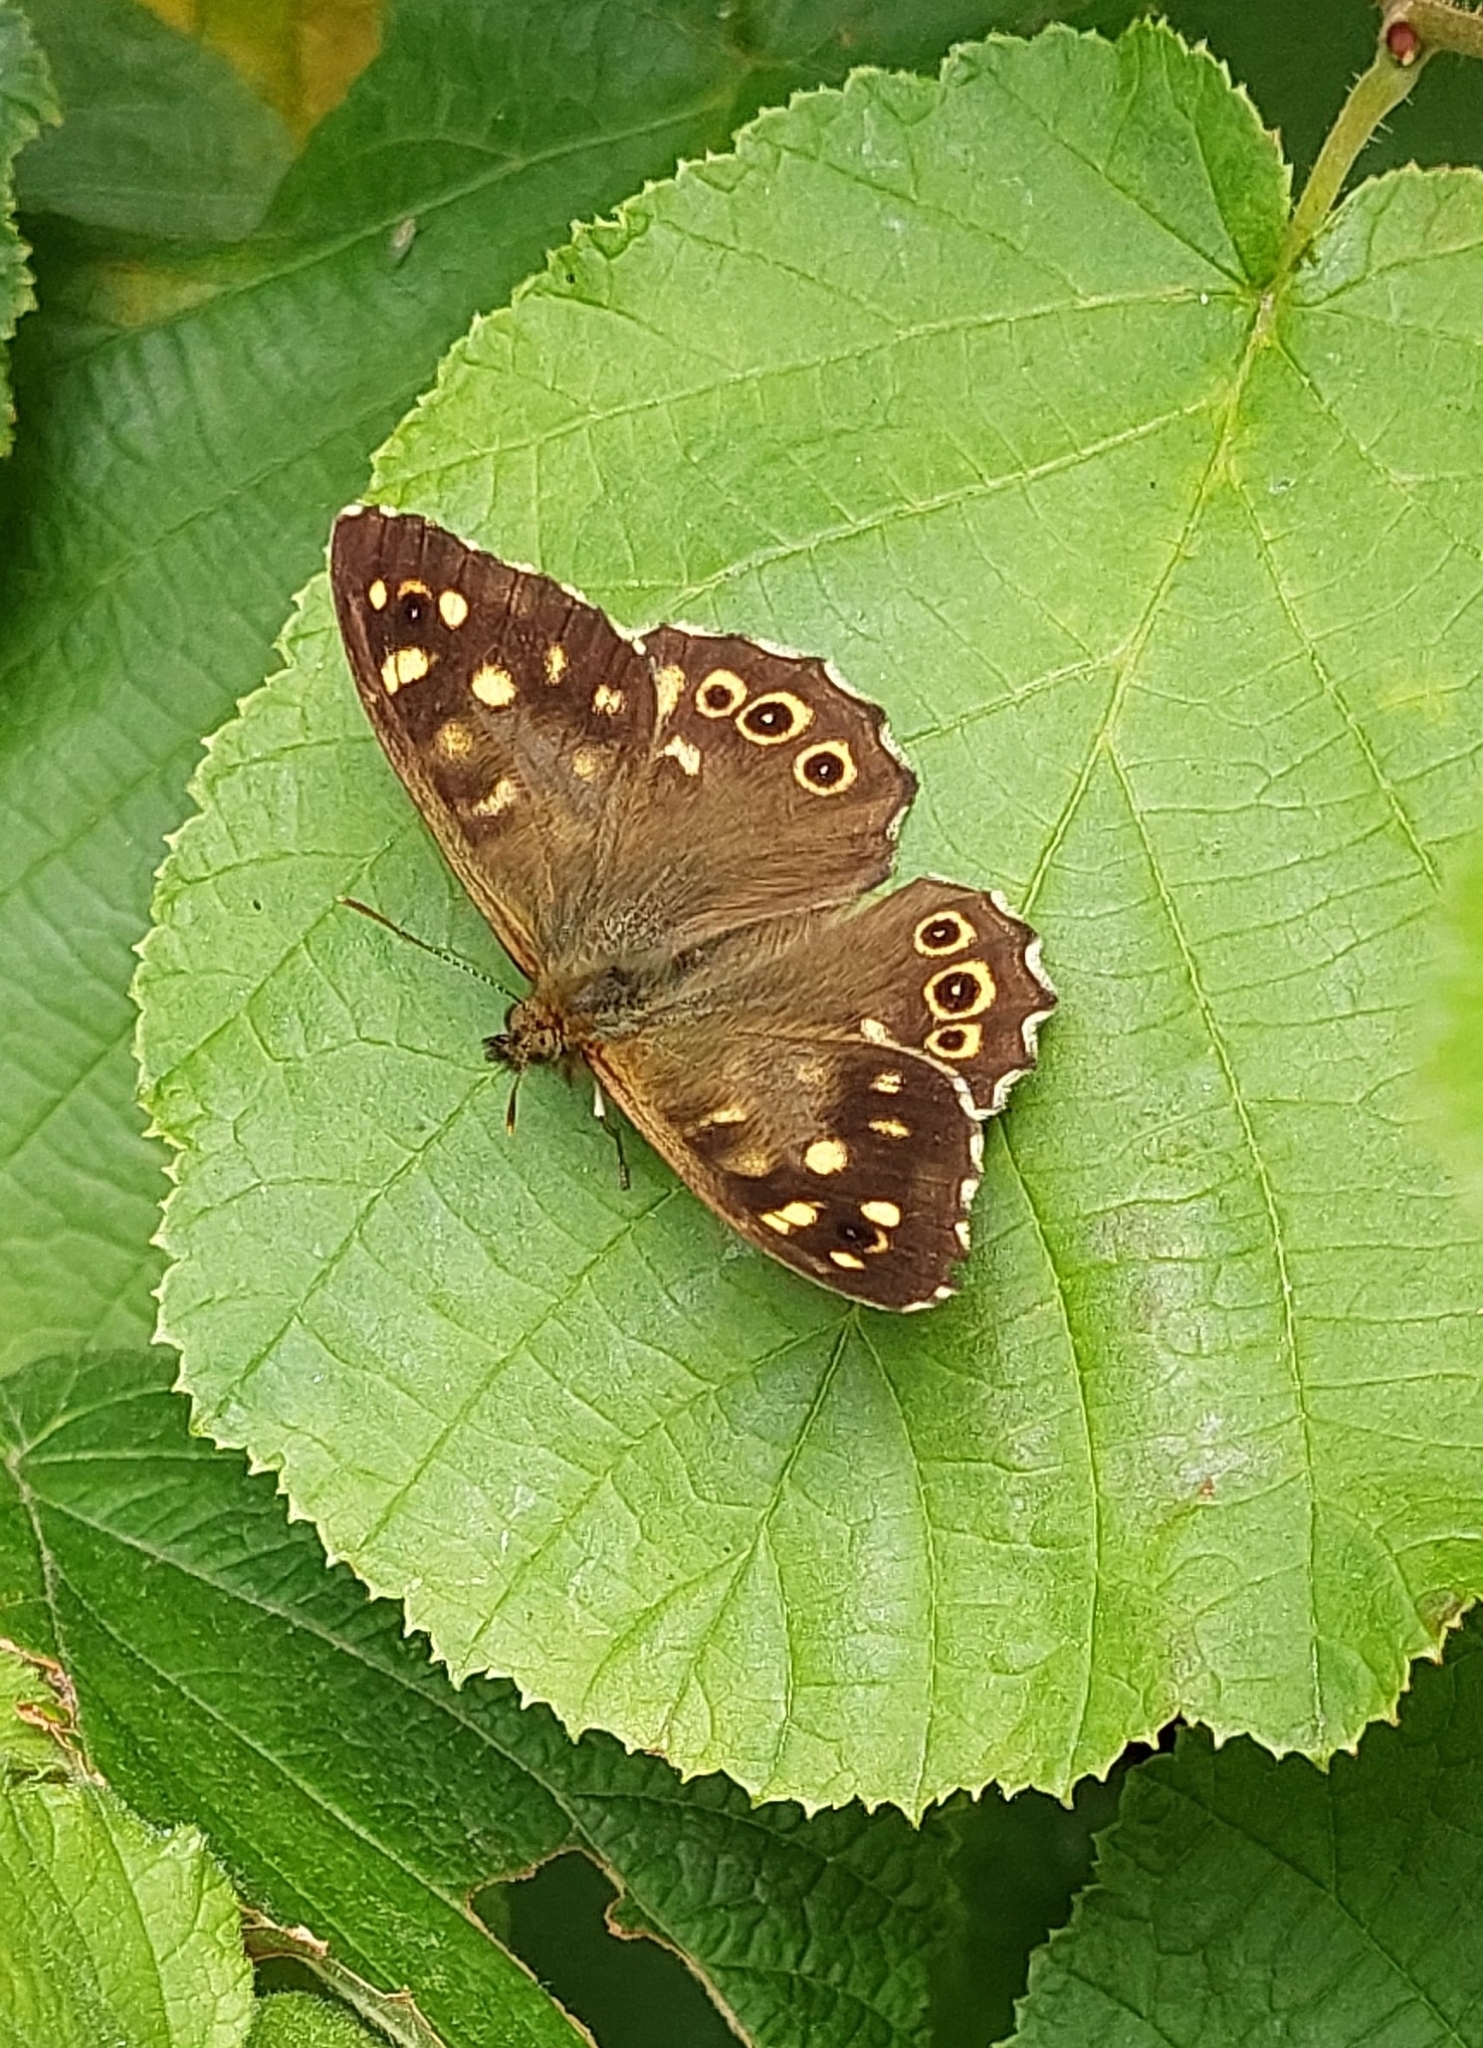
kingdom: Animalia
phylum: Arthropoda
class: Insecta
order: Lepidoptera
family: Nymphalidae
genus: Pararge
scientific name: Pararge aegeria
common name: Speckled wood
